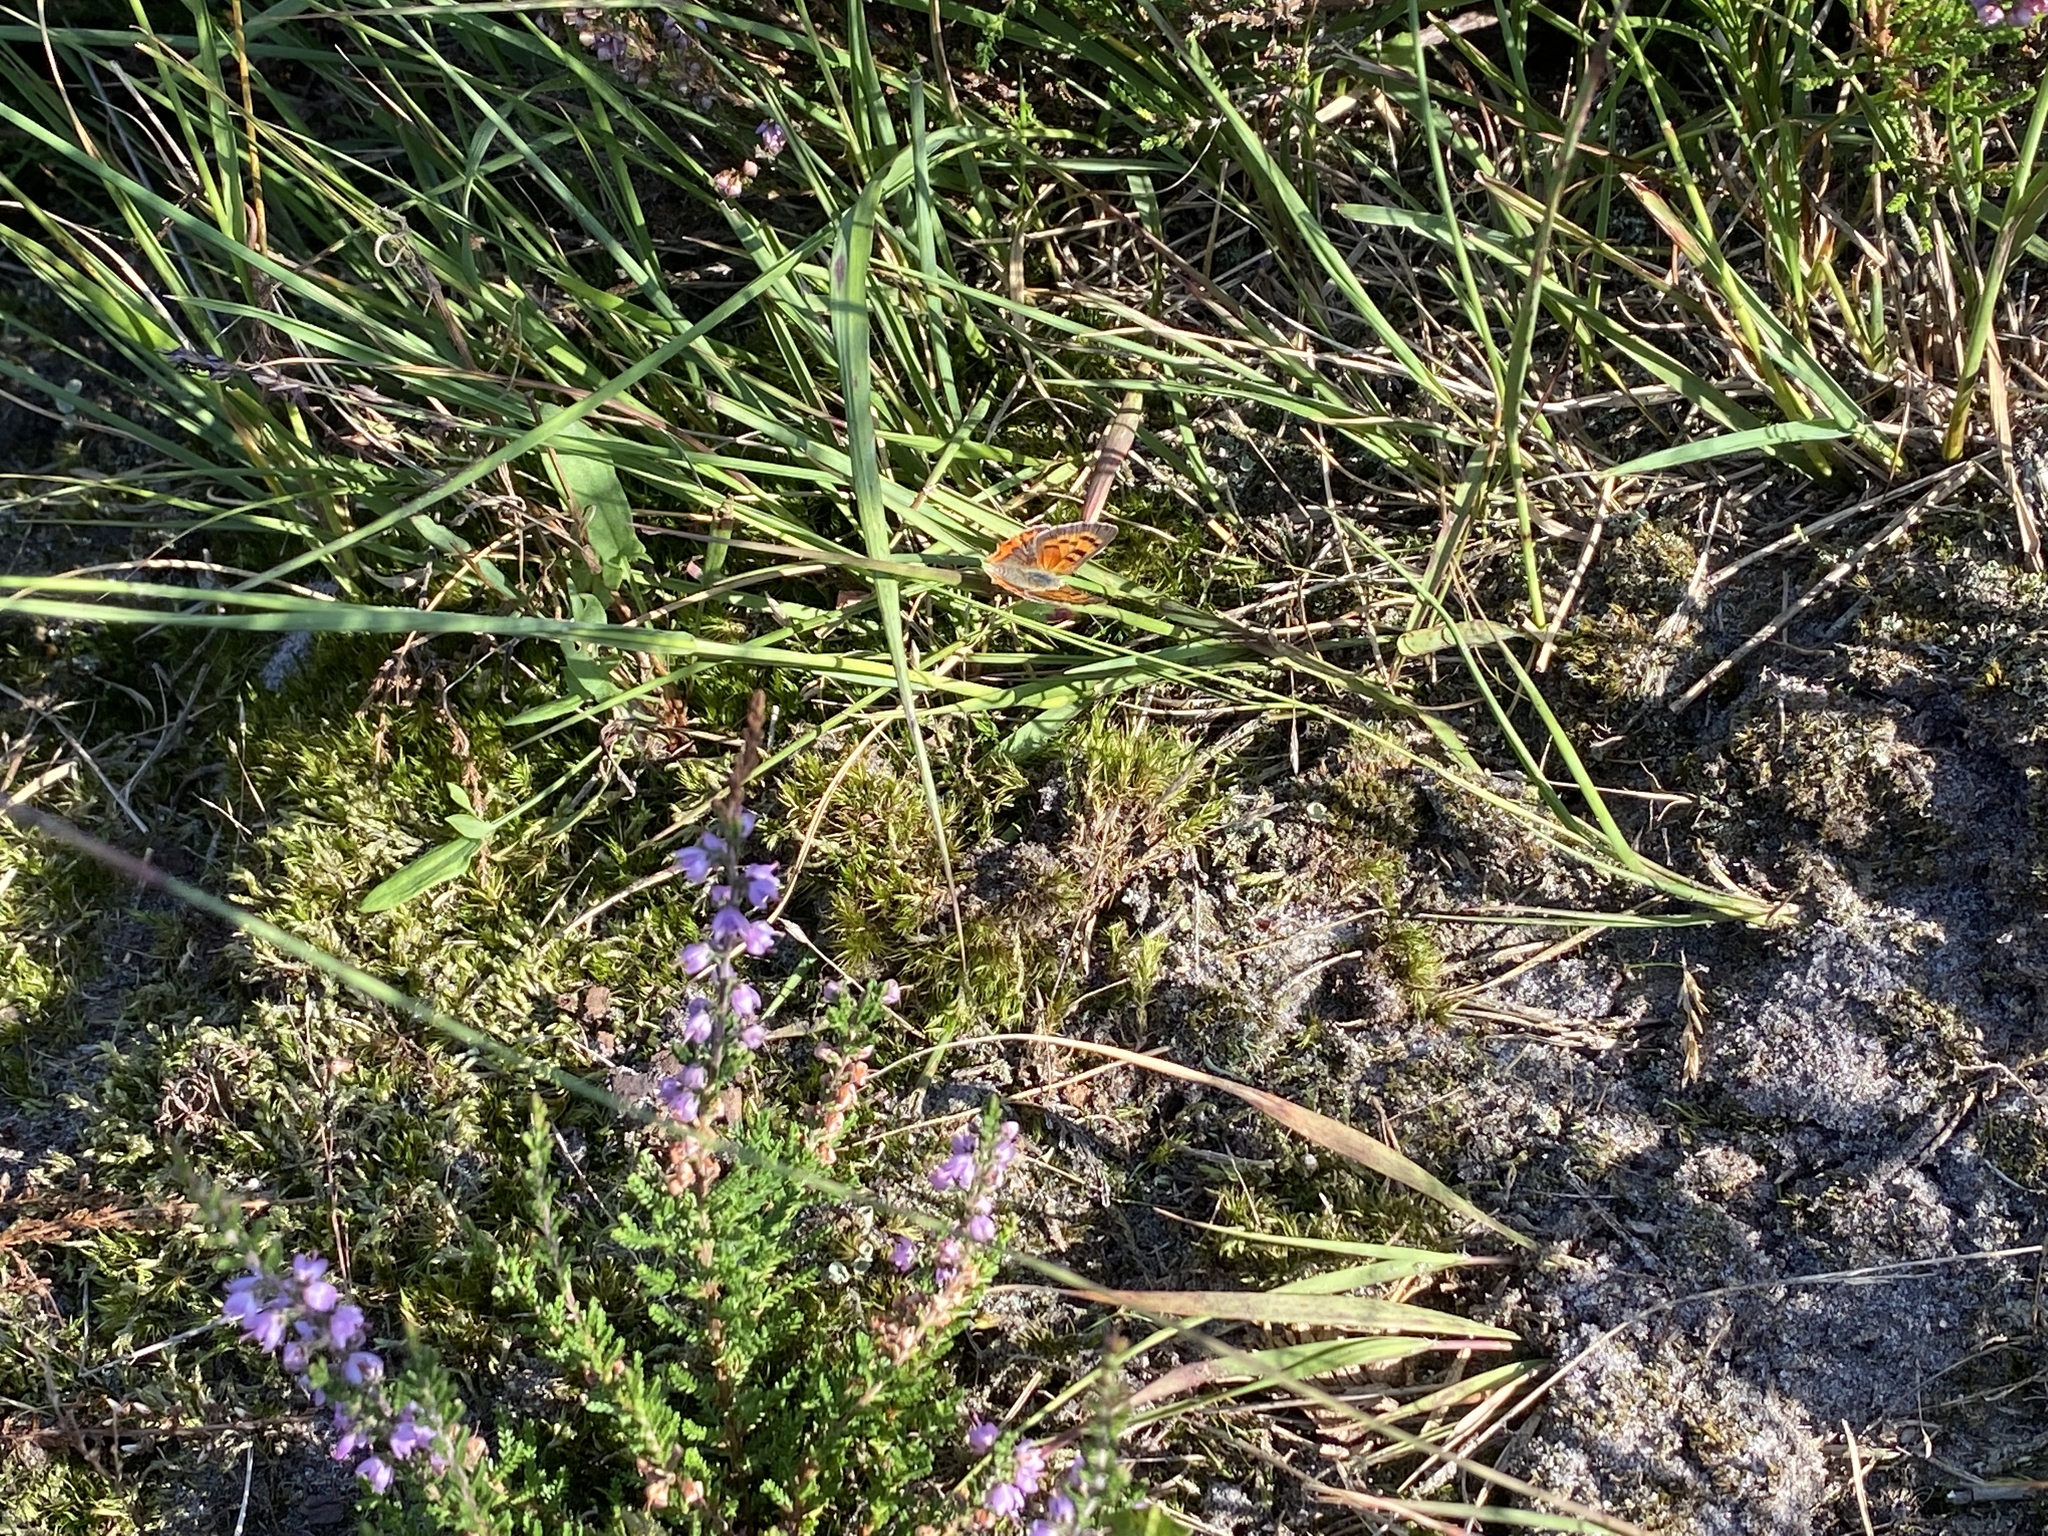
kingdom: Animalia
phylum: Arthropoda
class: Insecta
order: Lepidoptera
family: Lycaenidae
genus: Lycaena
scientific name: Lycaena phlaeas
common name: Small copper
